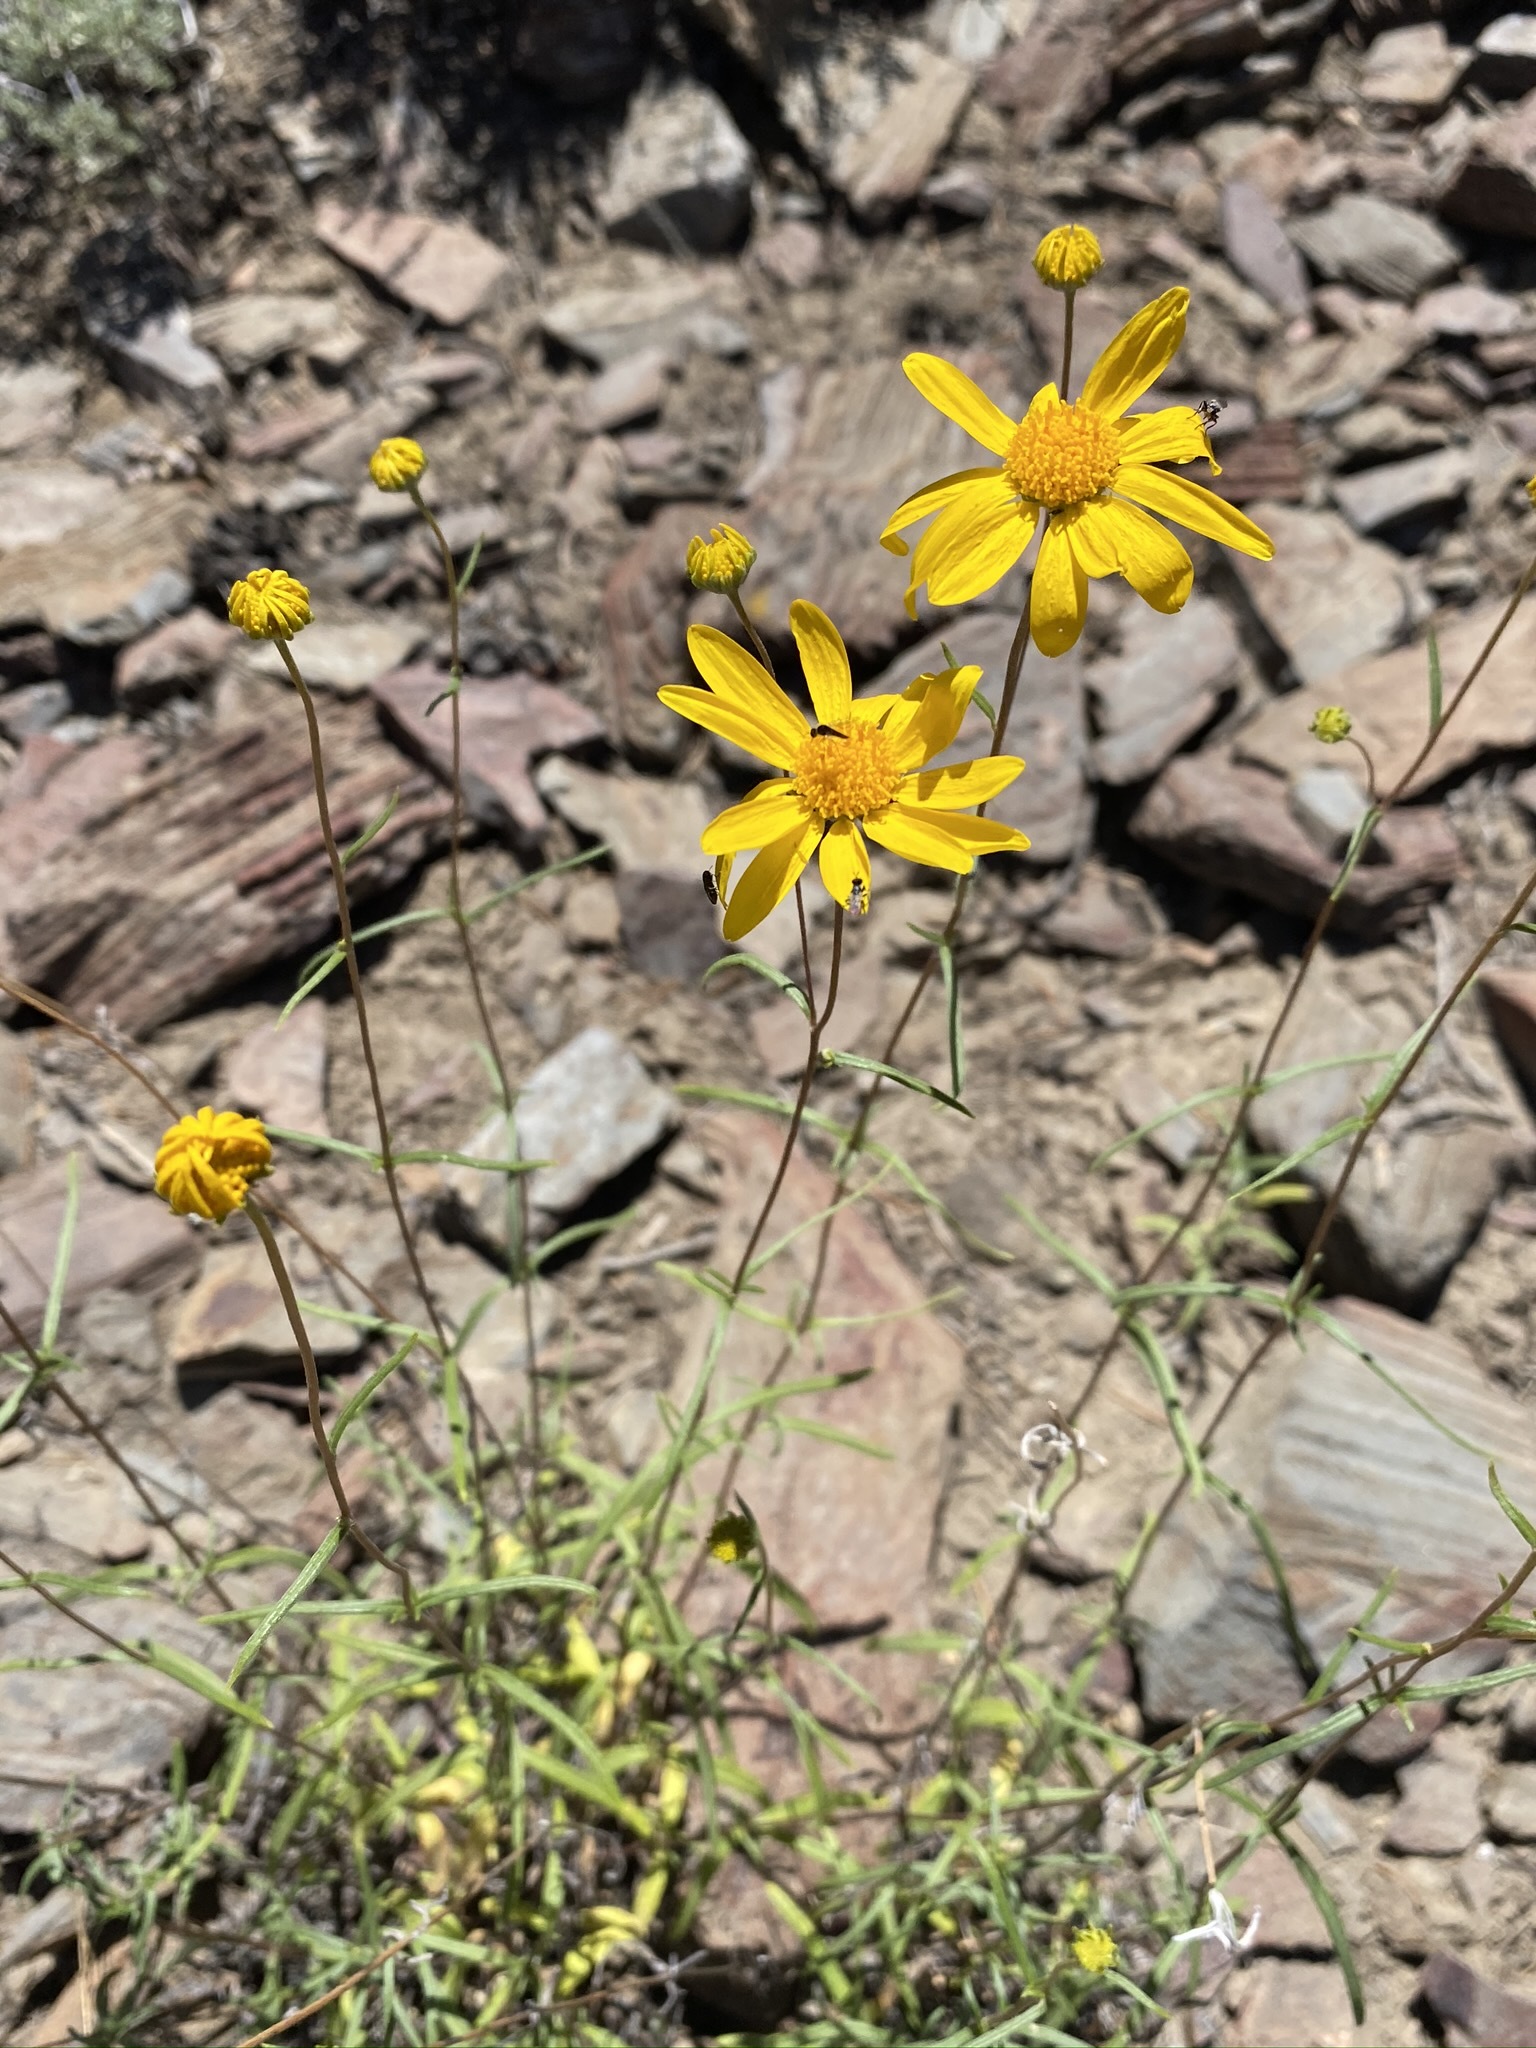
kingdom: Plantae
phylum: Tracheophyta
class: Magnoliopsida
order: Asterales
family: Asteraceae
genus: Heliomeris
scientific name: Heliomeris multiflora
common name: Showy goldeneye
